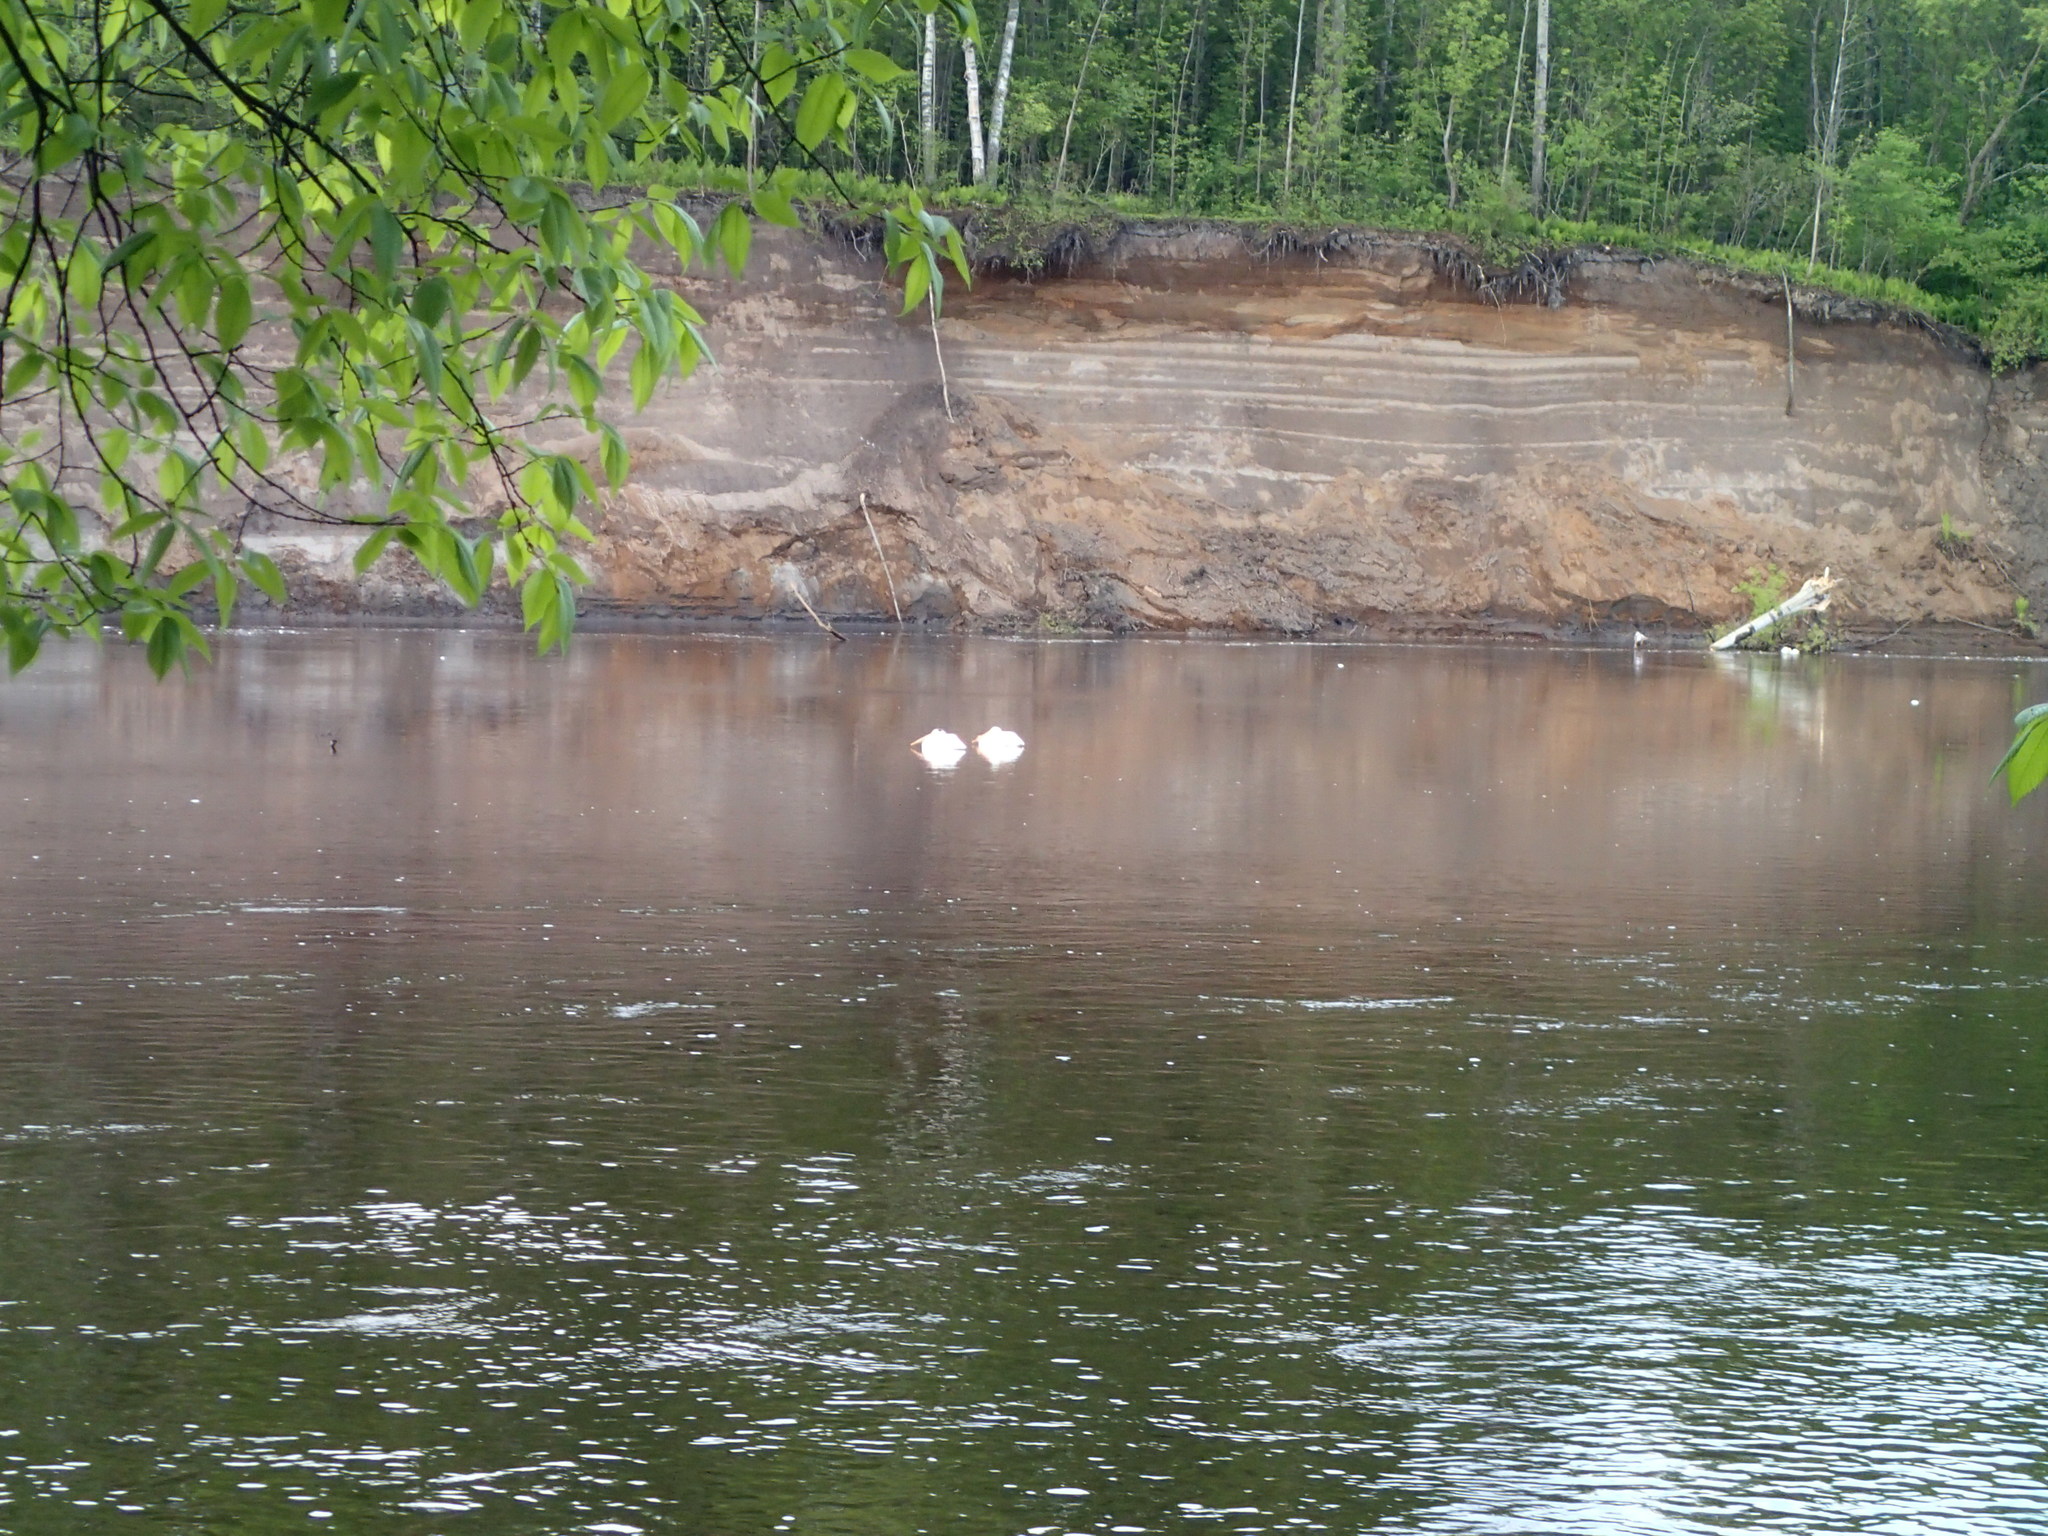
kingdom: Animalia
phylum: Chordata
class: Aves
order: Pelecaniformes
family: Pelecanidae
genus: Pelecanus
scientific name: Pelecanus erythrorhynchos
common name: American white pelican
